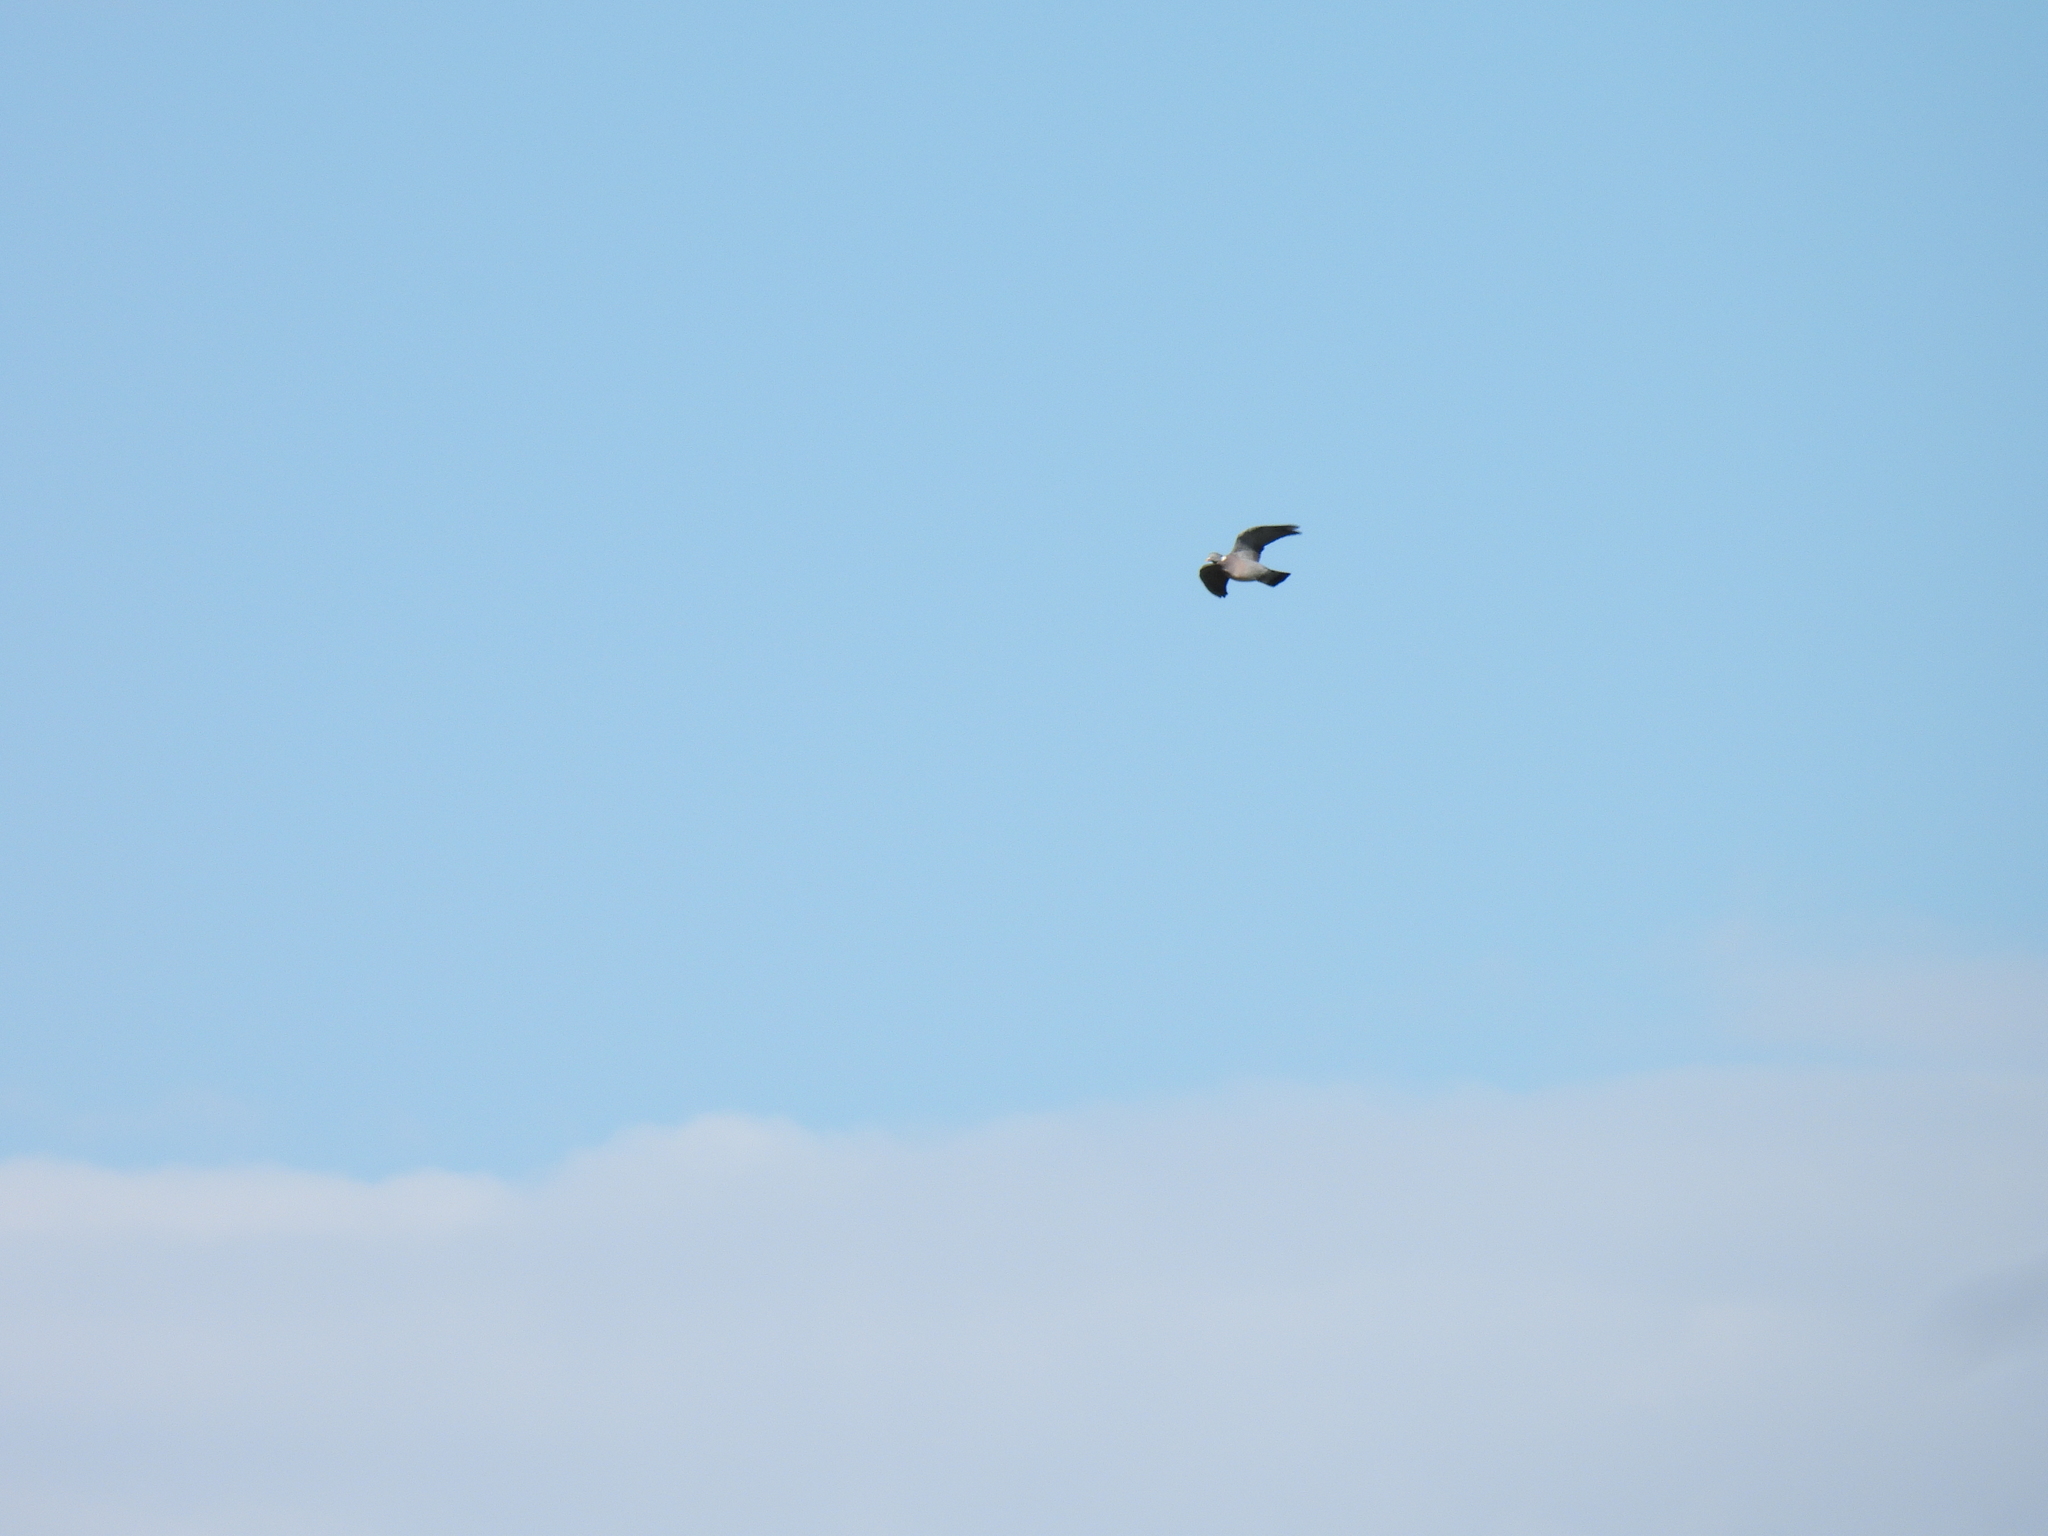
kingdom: Animalia
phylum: Chordata
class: Aves
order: Columbiformes
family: Columbidae
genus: Columba
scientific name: Columba palumbus
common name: Common wood pigeon
